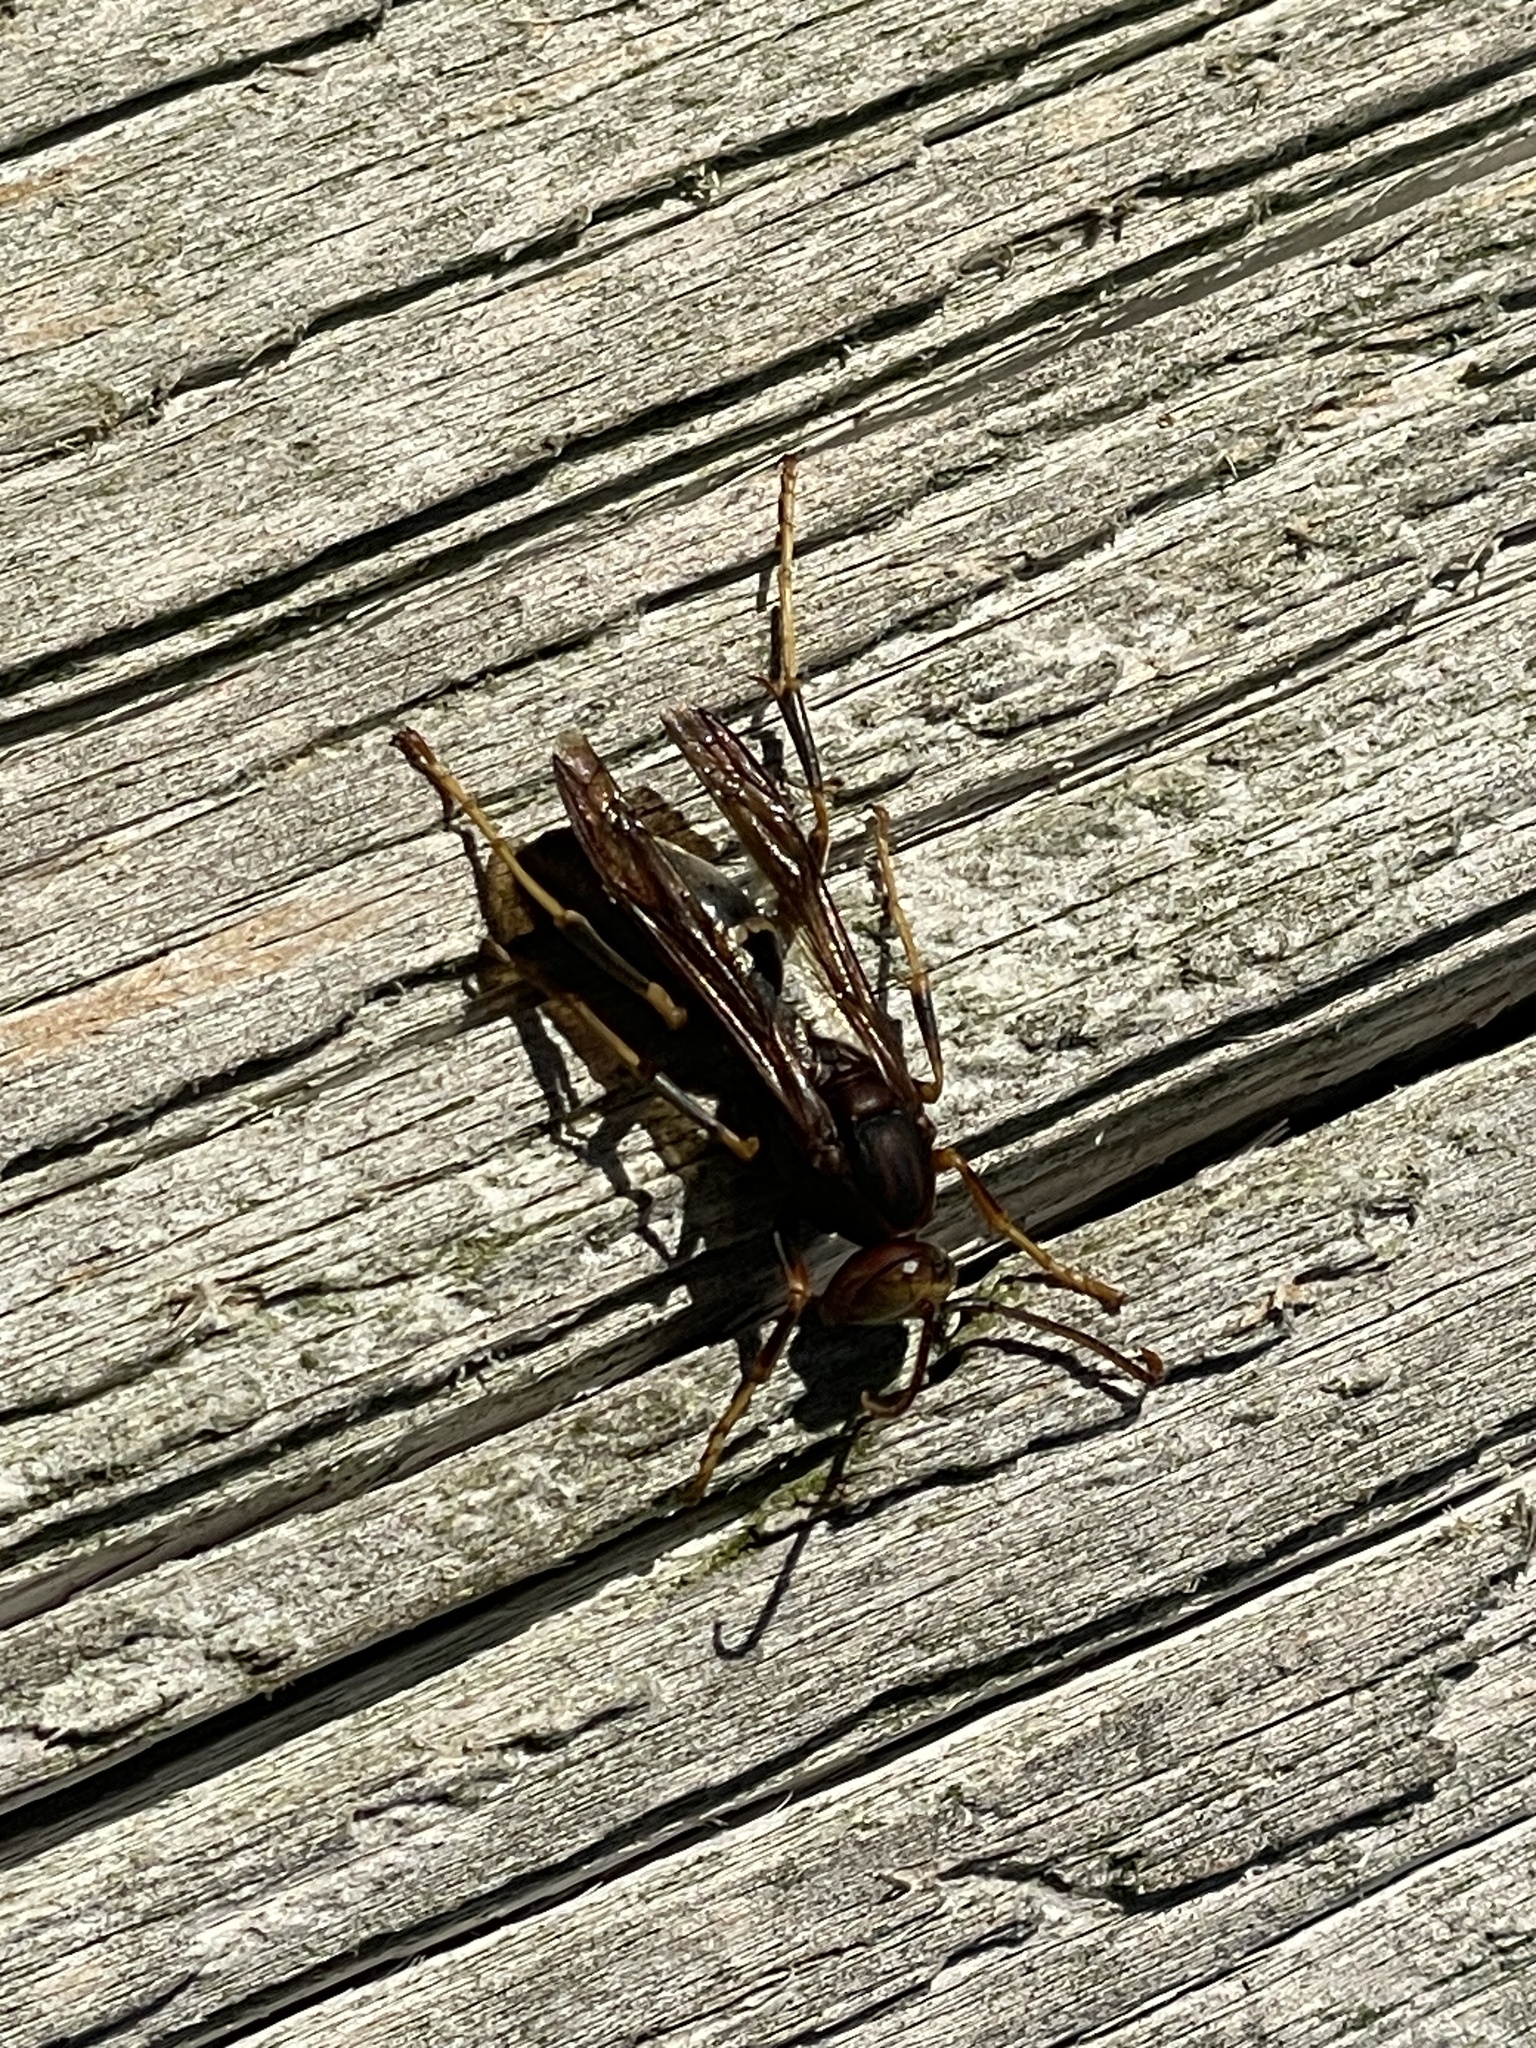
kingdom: Animalia
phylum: Arthropoda
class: Insecta
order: Hymenoptera
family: Vespidae
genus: Fuscopolistes
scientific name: Fuscopolistes
